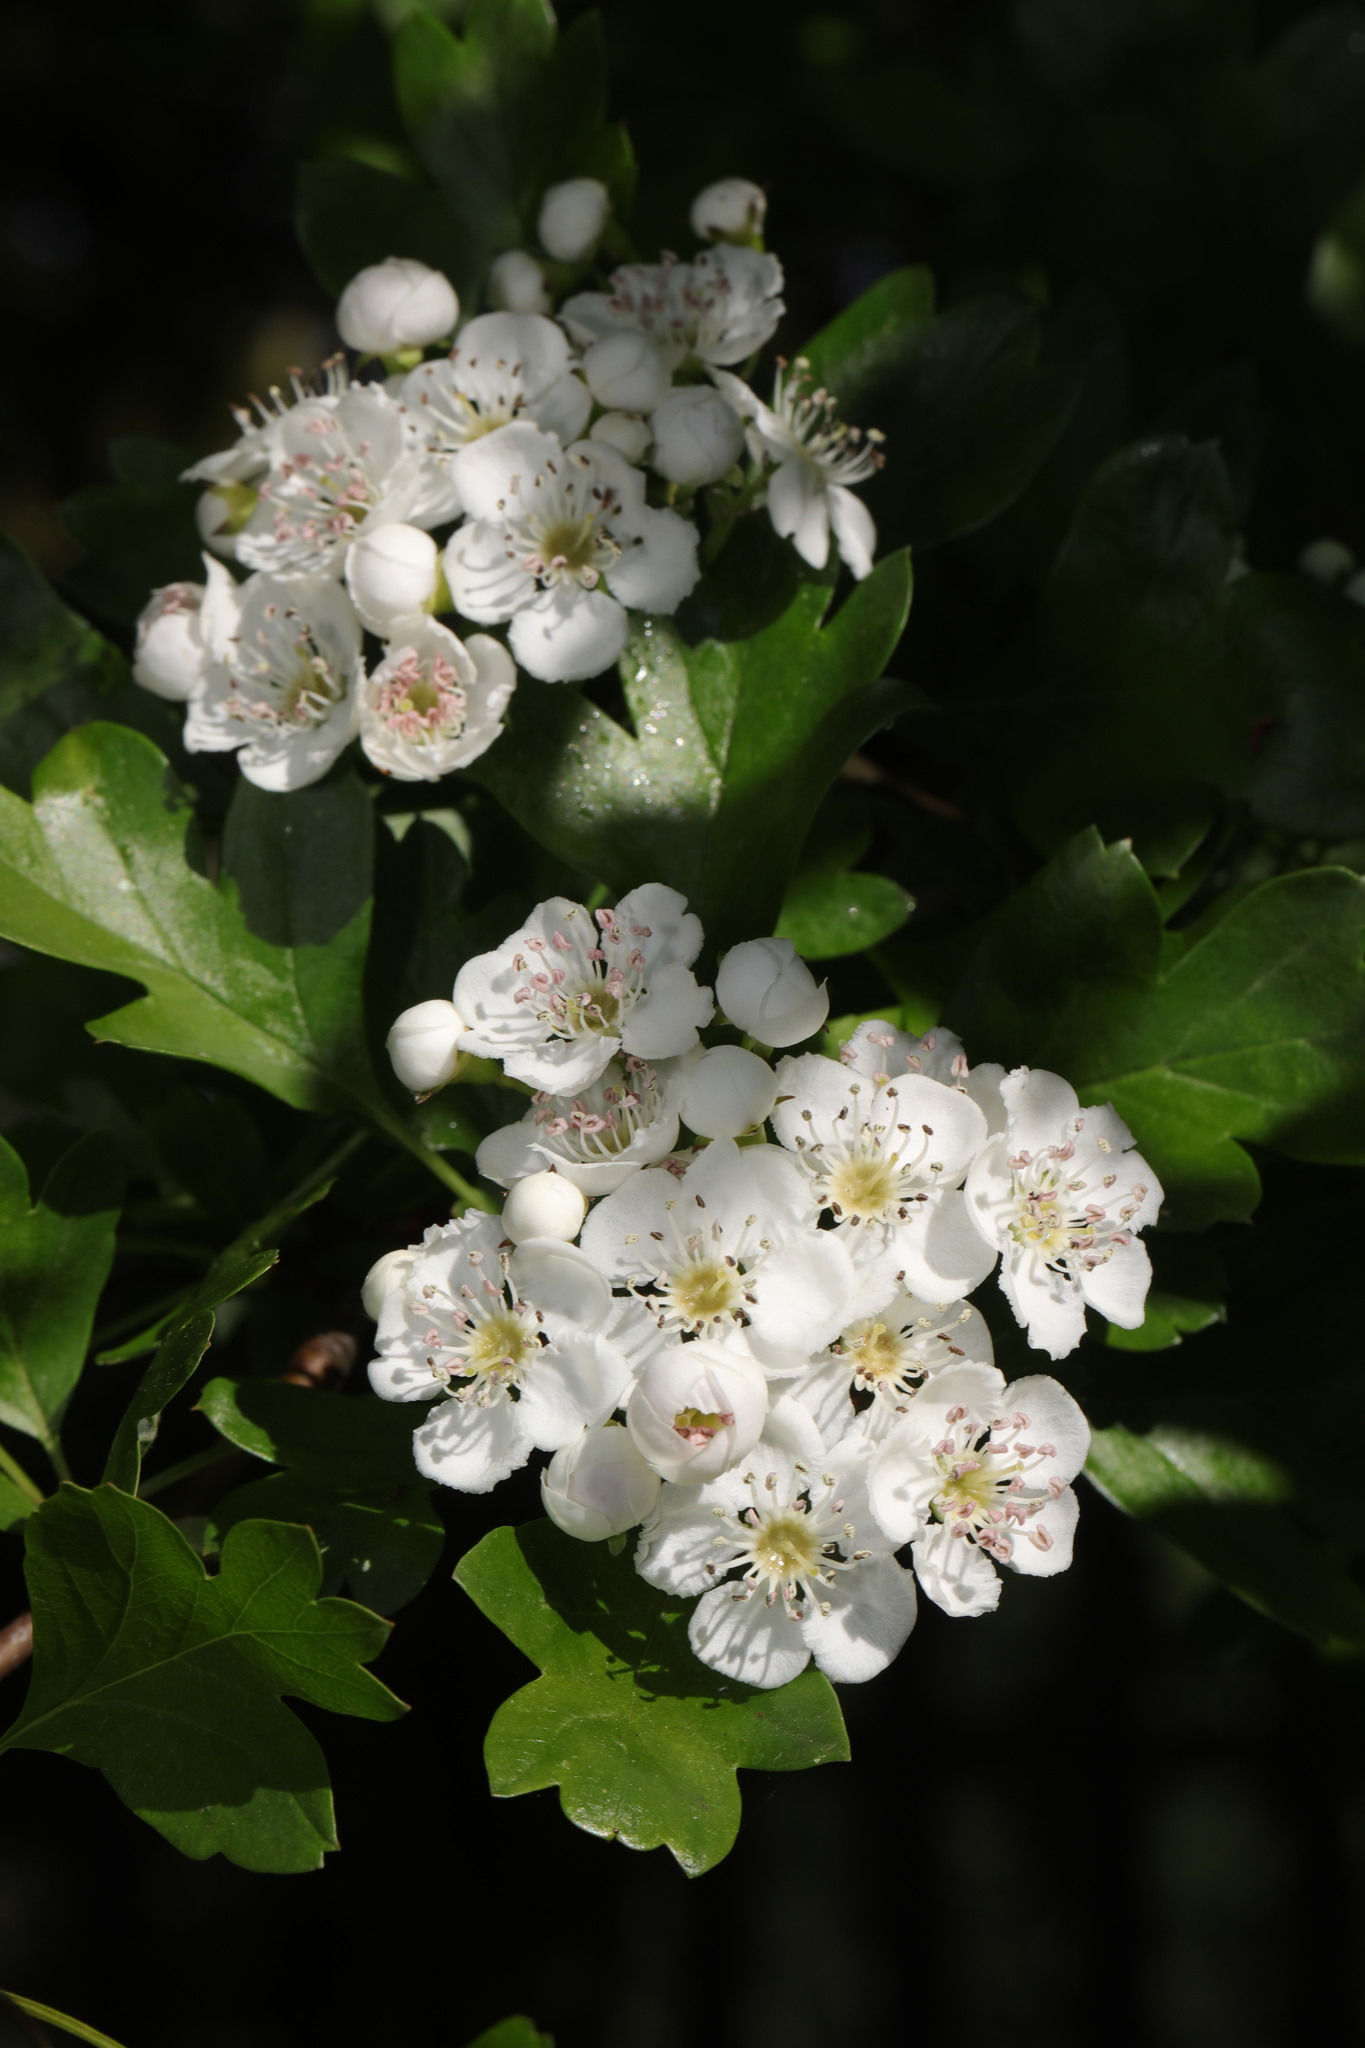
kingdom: Plantae
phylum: Tracheophyta
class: Magnoliopsida
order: Rosales
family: Rosaceae
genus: Crataegus
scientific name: Crataegus monogyna
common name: Hawthorn
